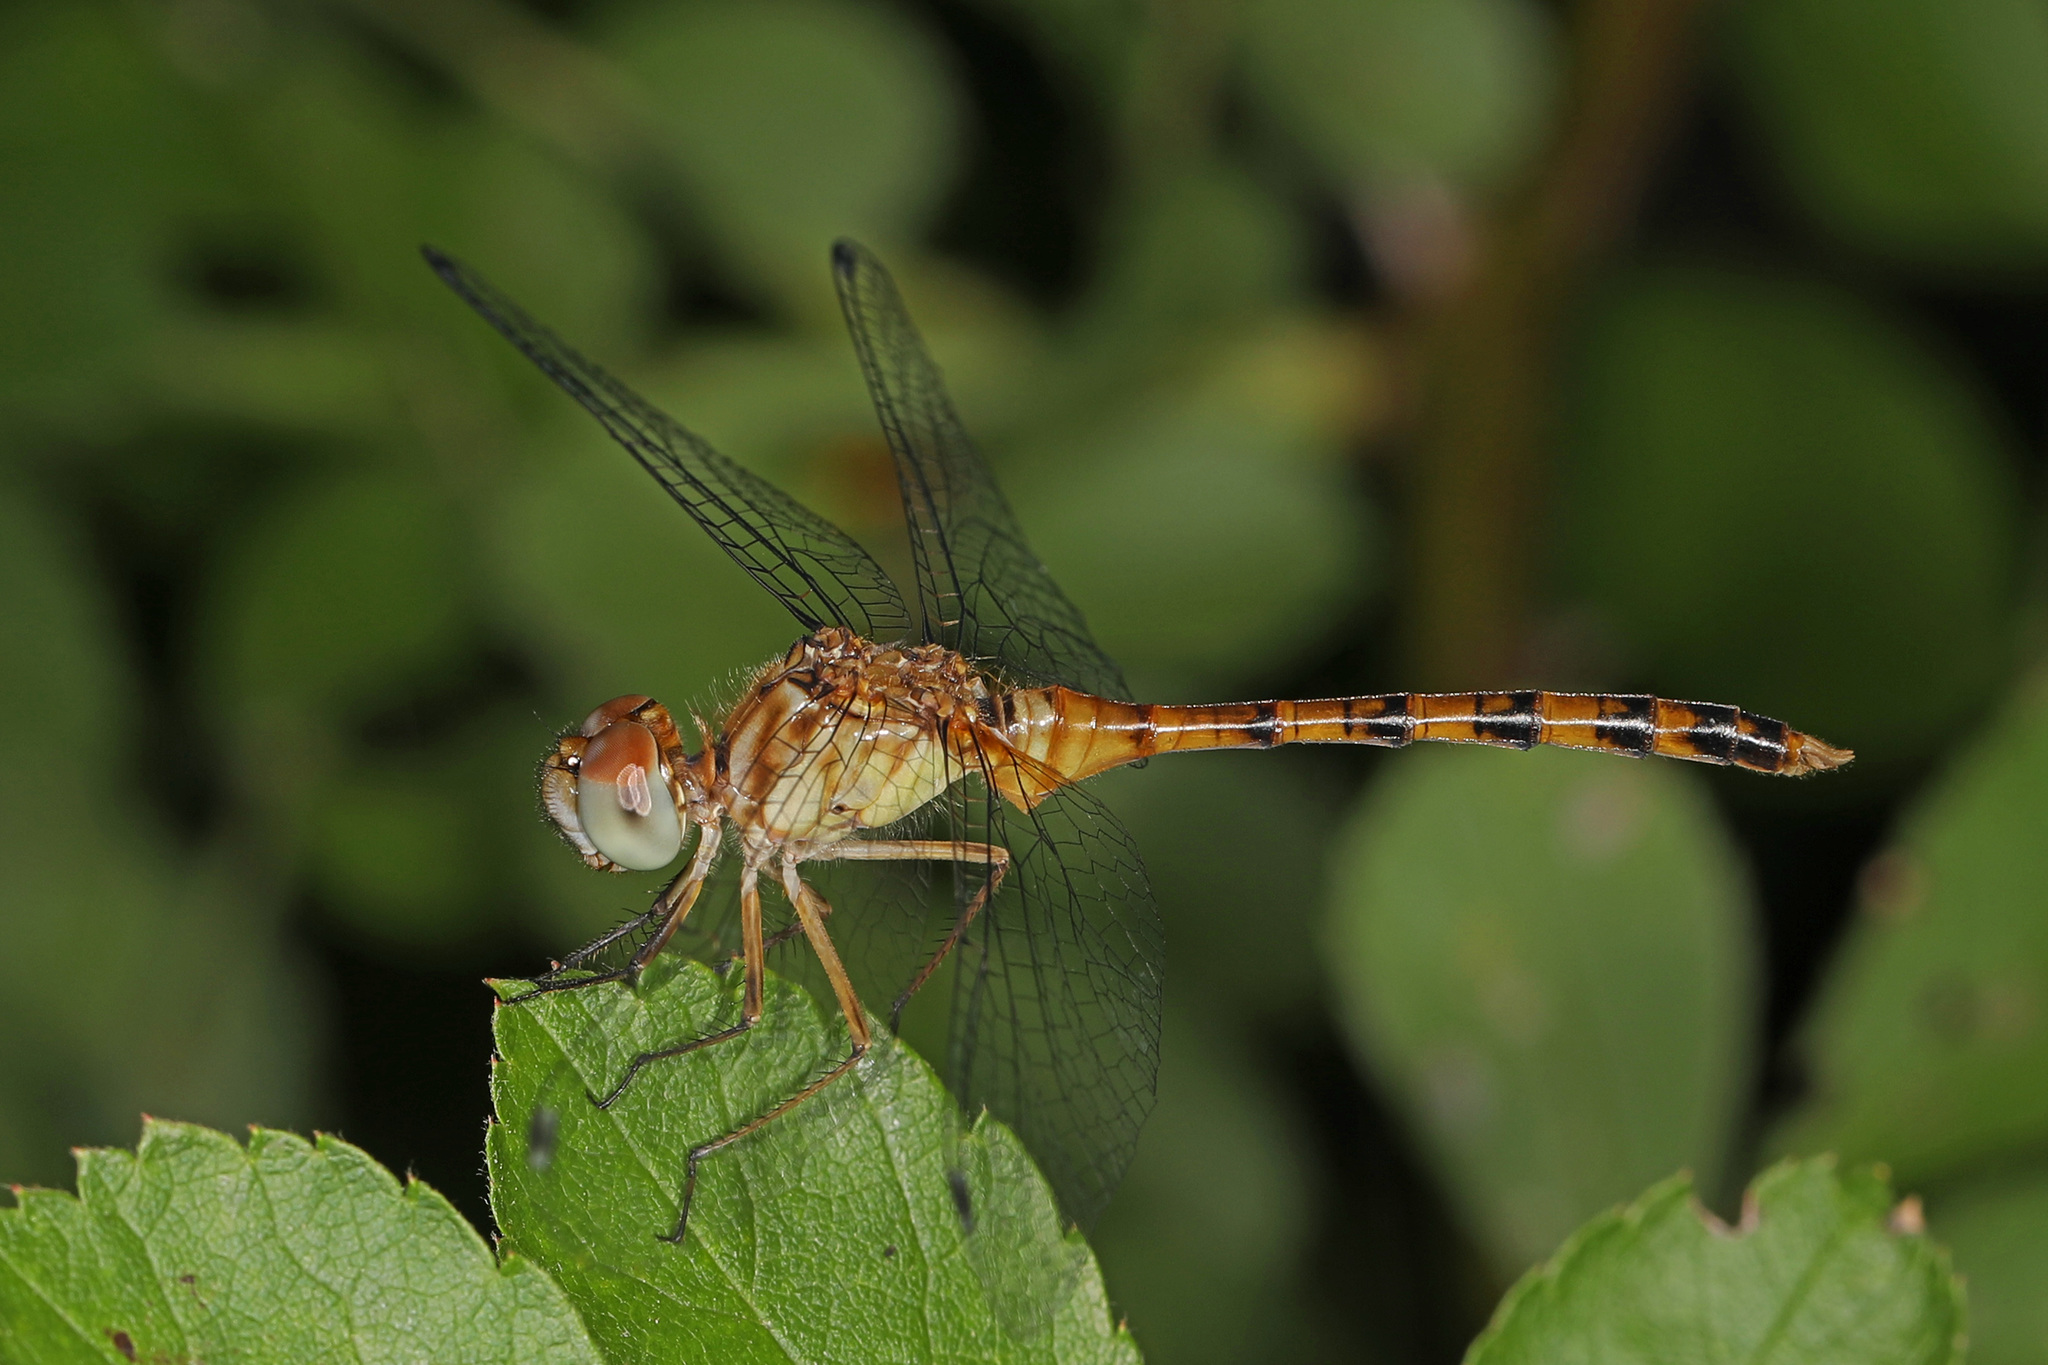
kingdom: Animalia
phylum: Arthropoda
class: Insecta
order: Odonata
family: Libellulidae
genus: Sympetrum
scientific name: Sympetrum ambiguum
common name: Blue-faced meadowhawk
